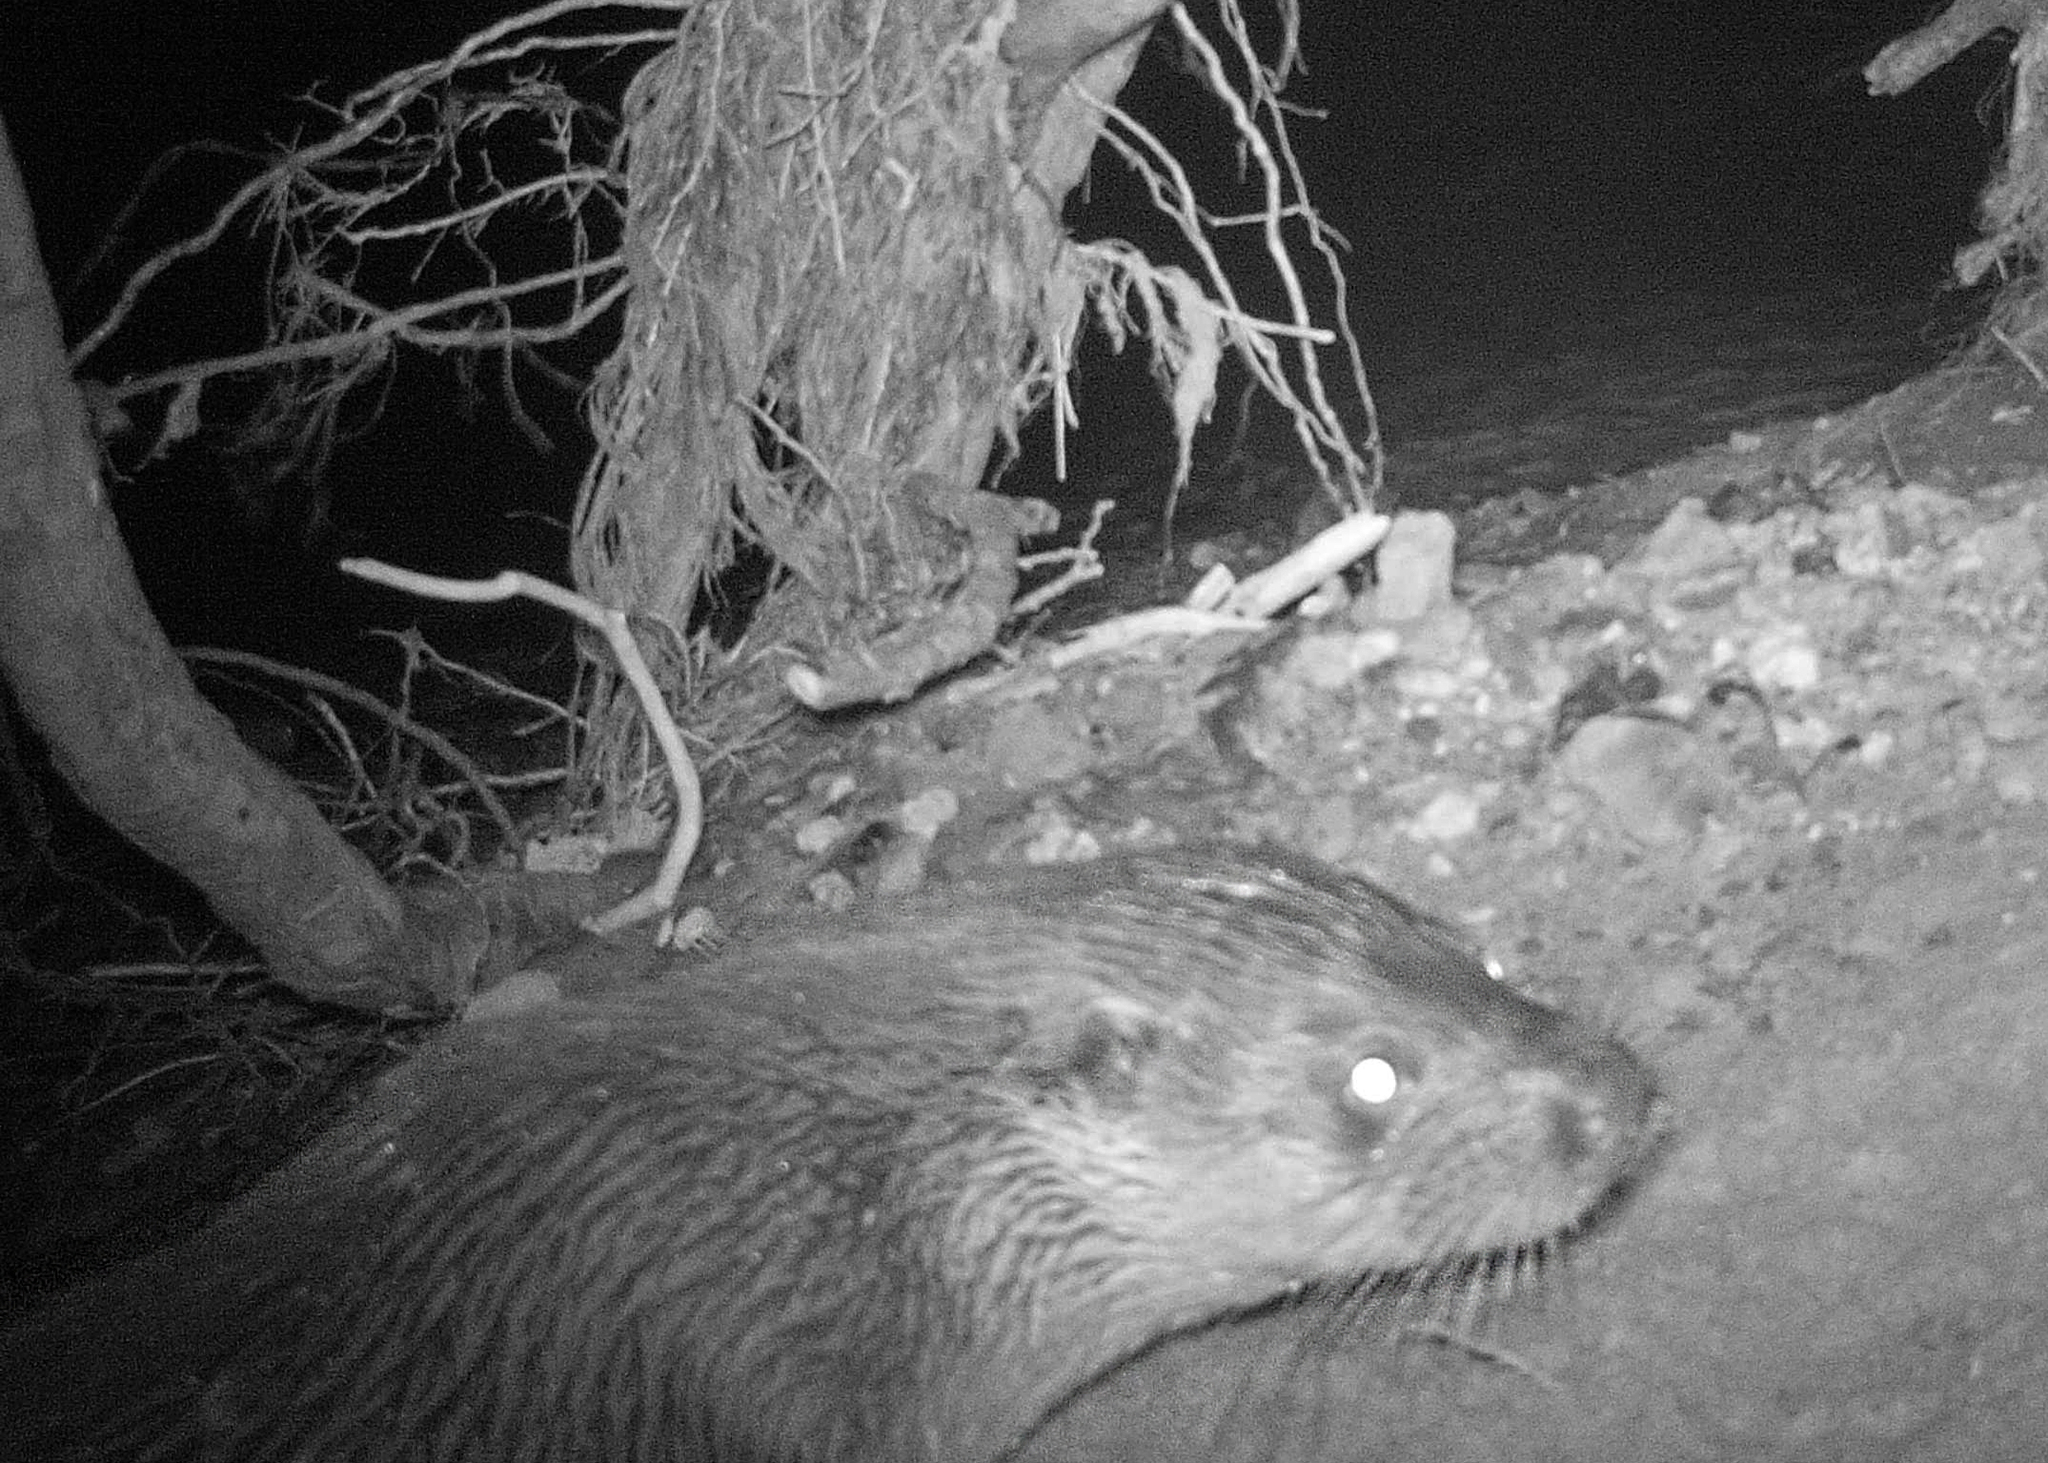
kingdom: Animalia
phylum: Chordata
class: Mammalia
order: Carnivora
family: Mustelidae
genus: Lutra
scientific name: Lutra lutra
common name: European otter
